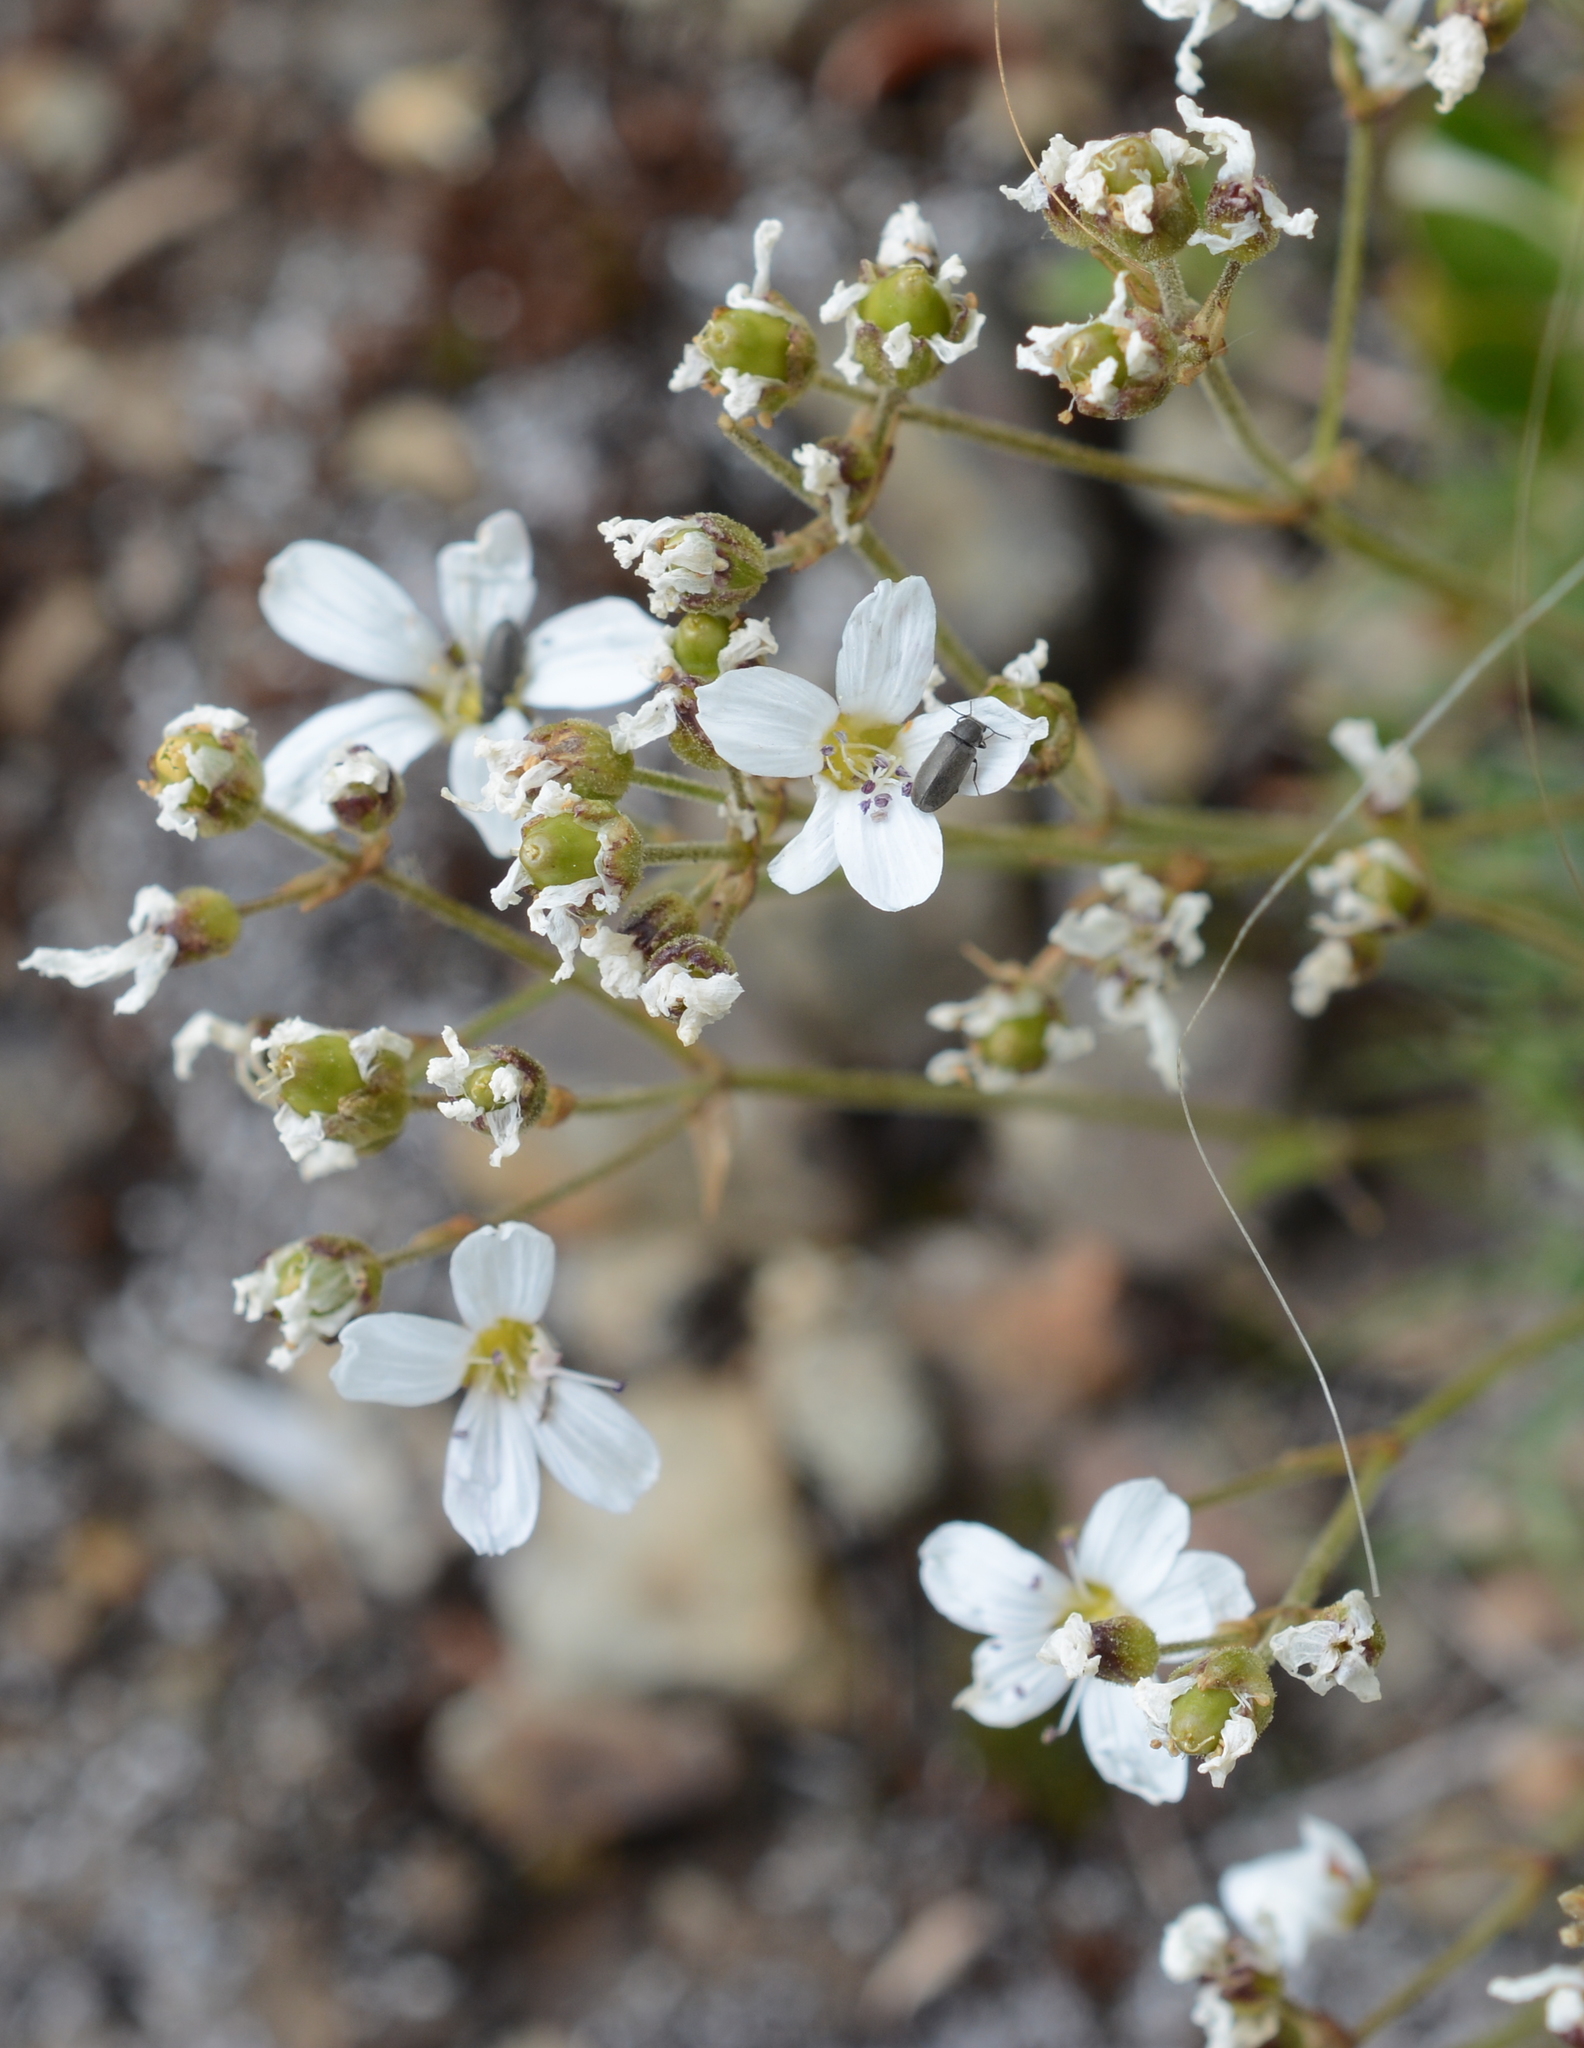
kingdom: Plantae
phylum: Tracheophyta
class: Magnoliopsida
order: Caryophyllales
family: Caryophyllaceae
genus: Eremogone
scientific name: Eremogone capillaris
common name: Slender mountain sandwort
